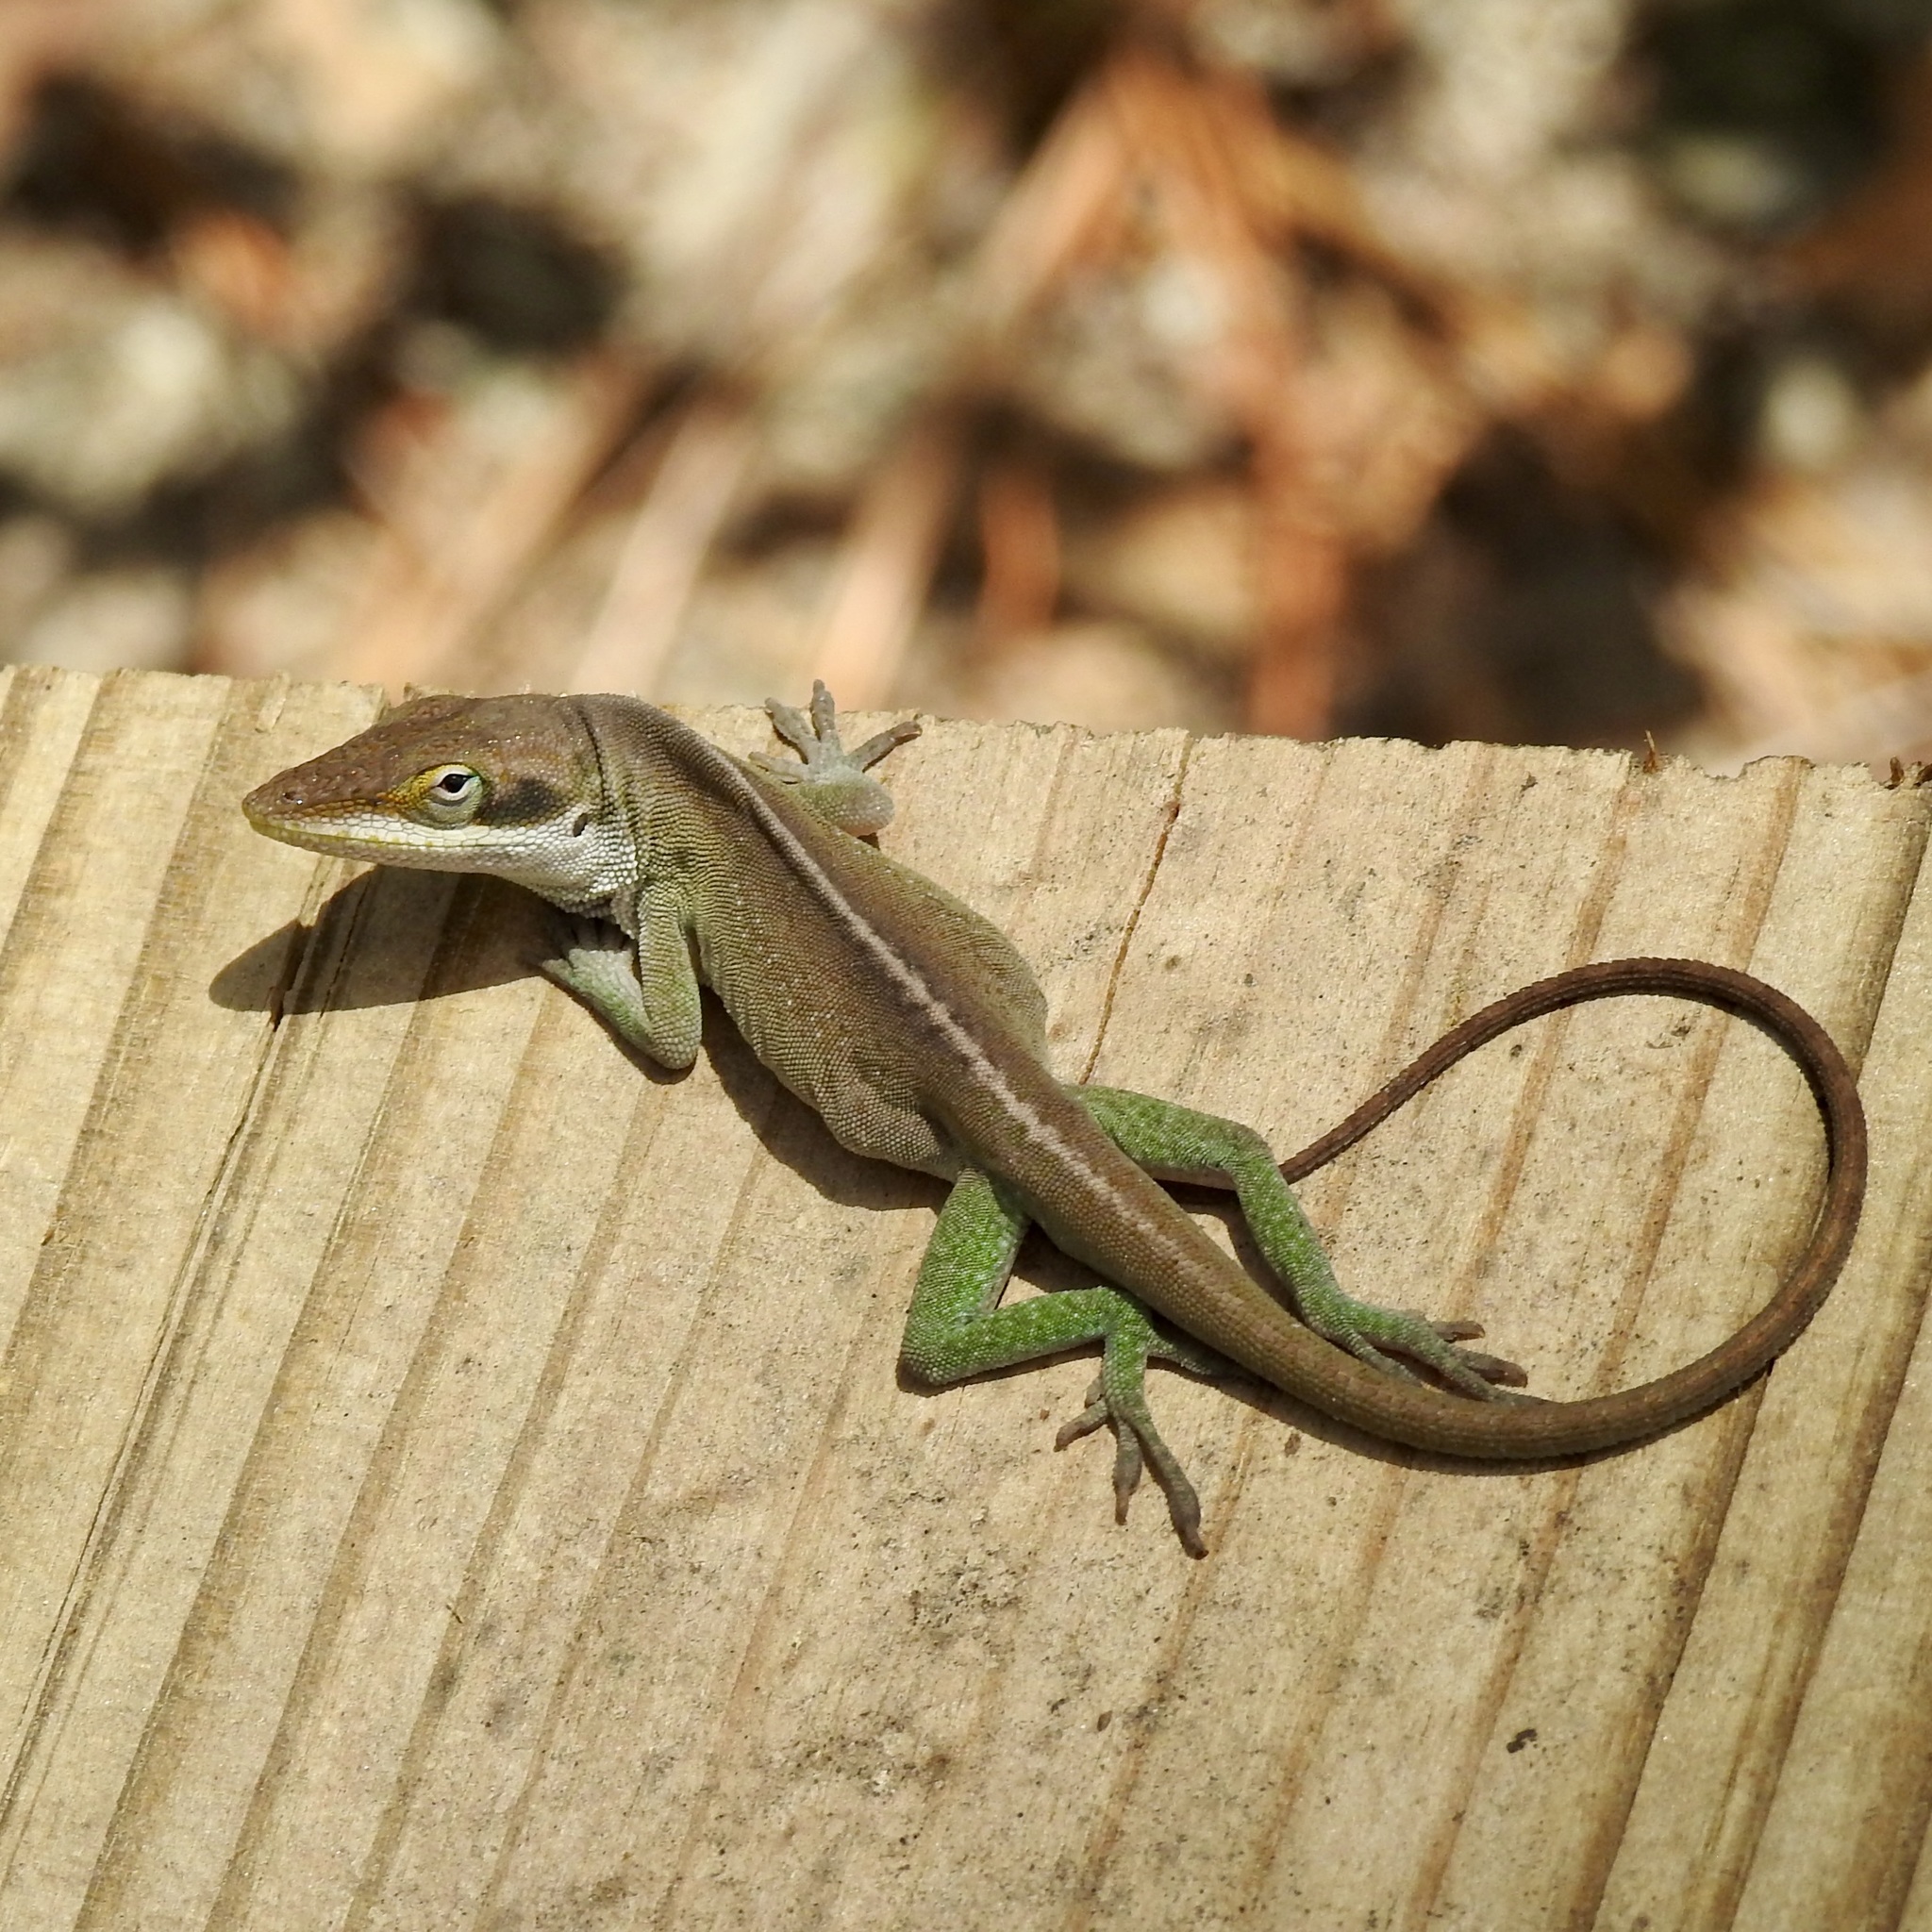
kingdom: Animalia
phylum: Chordata
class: Squamata
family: Dactyloidae
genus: Anolis
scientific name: Anolis carolinensis
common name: Green anole
